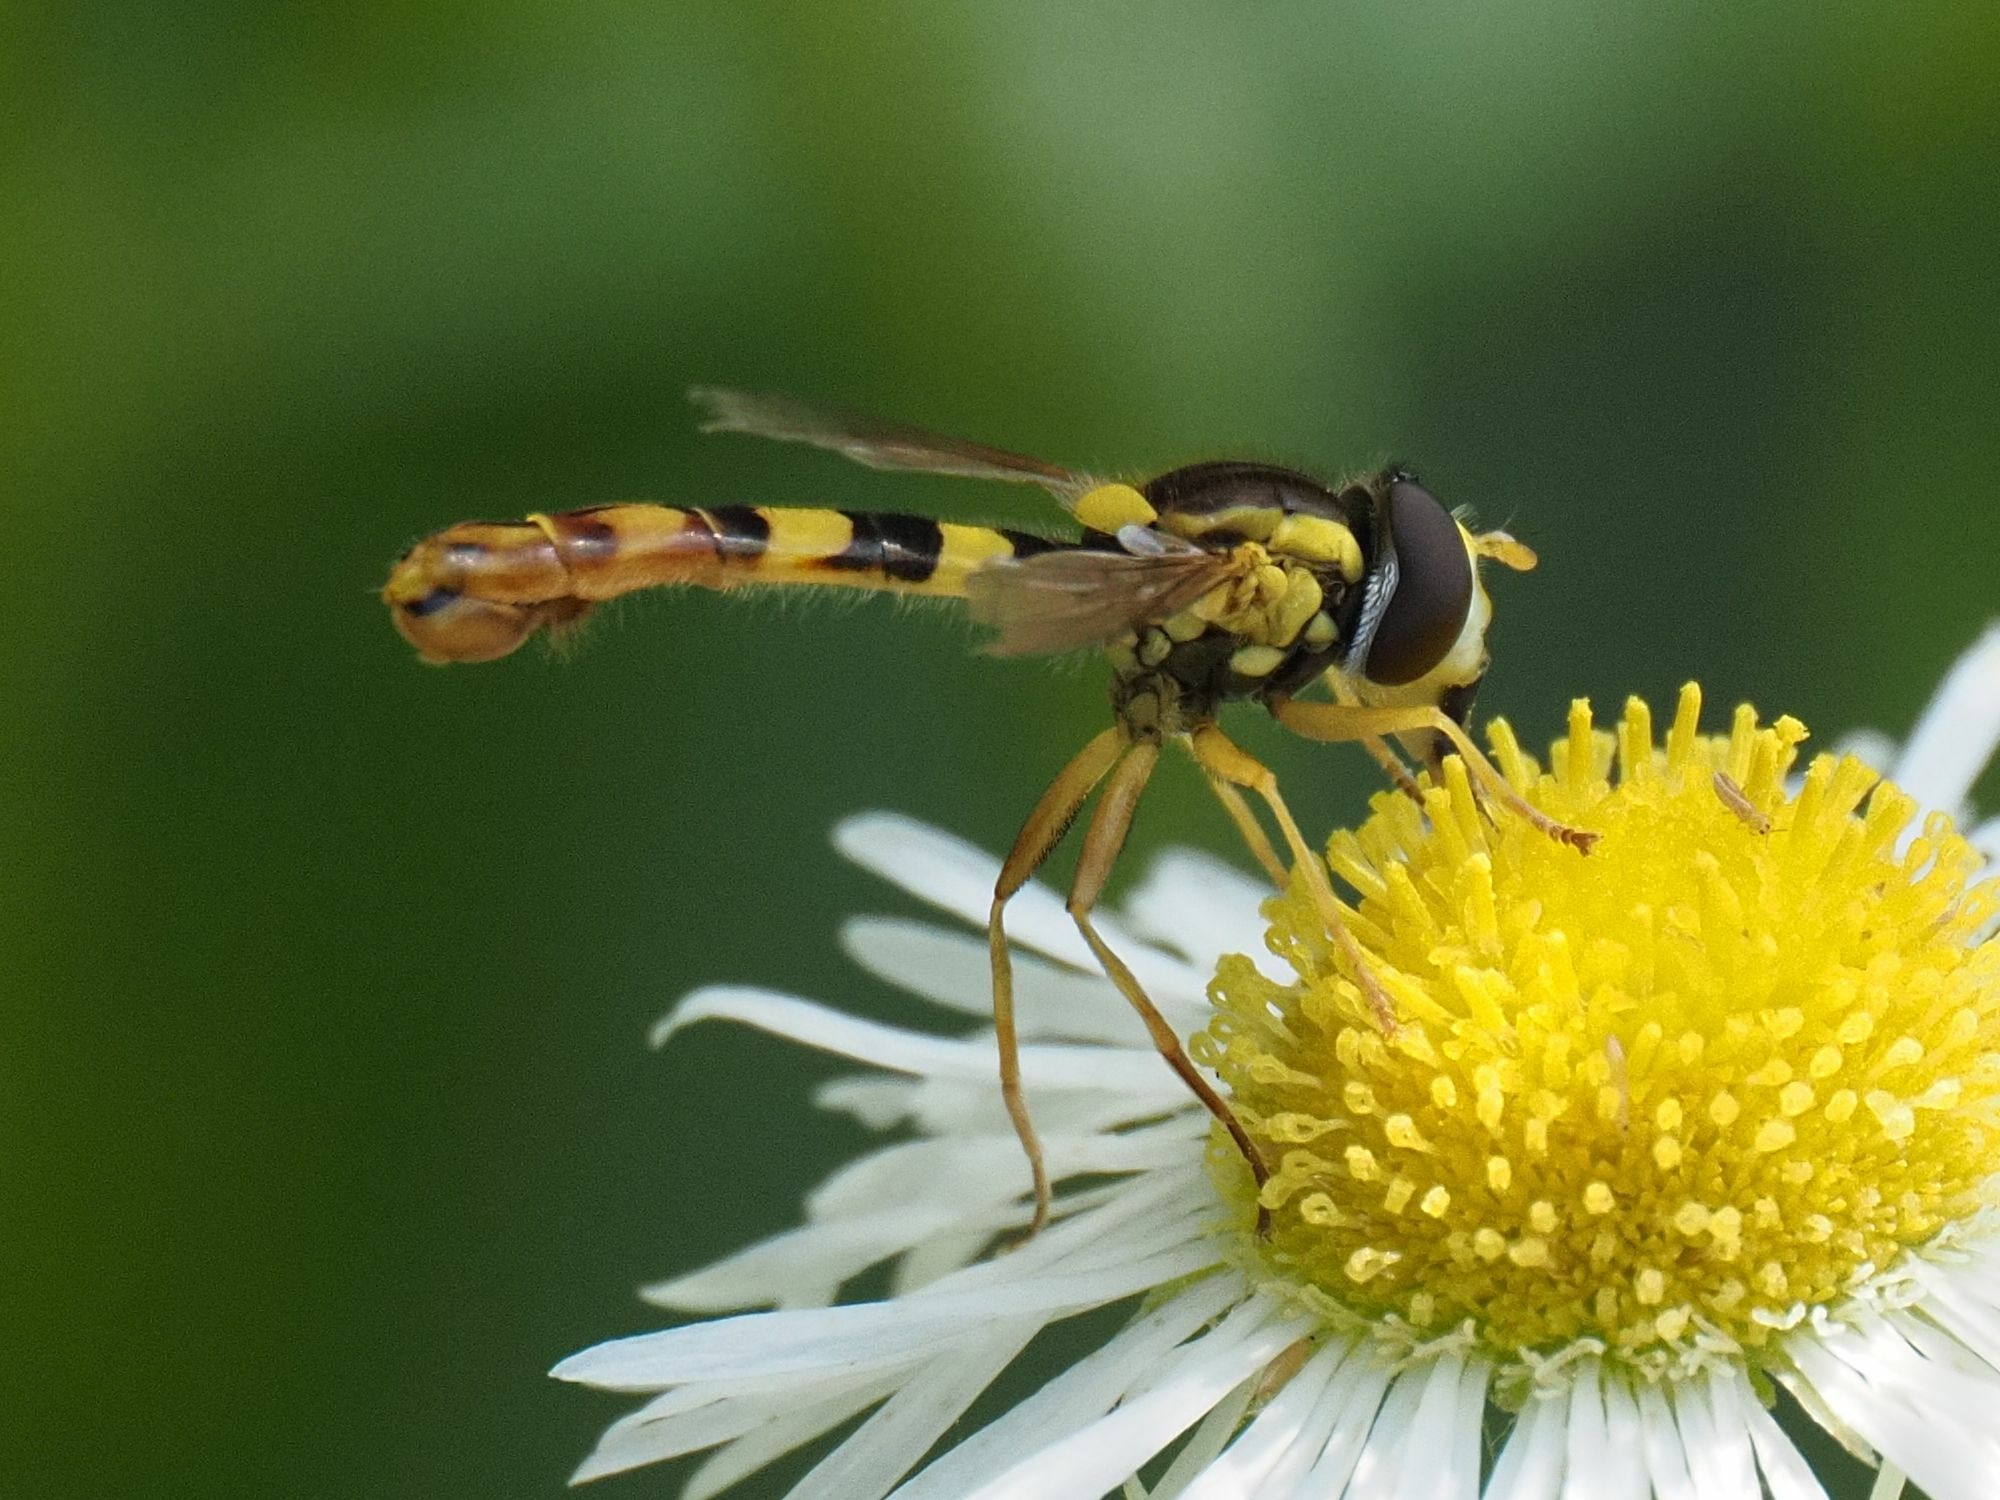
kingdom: Animalia
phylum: Arthropoda
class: Insecta
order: Diptera
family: Syrphidae
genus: Sphaerophoria
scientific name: Sphaerophoria scripta
